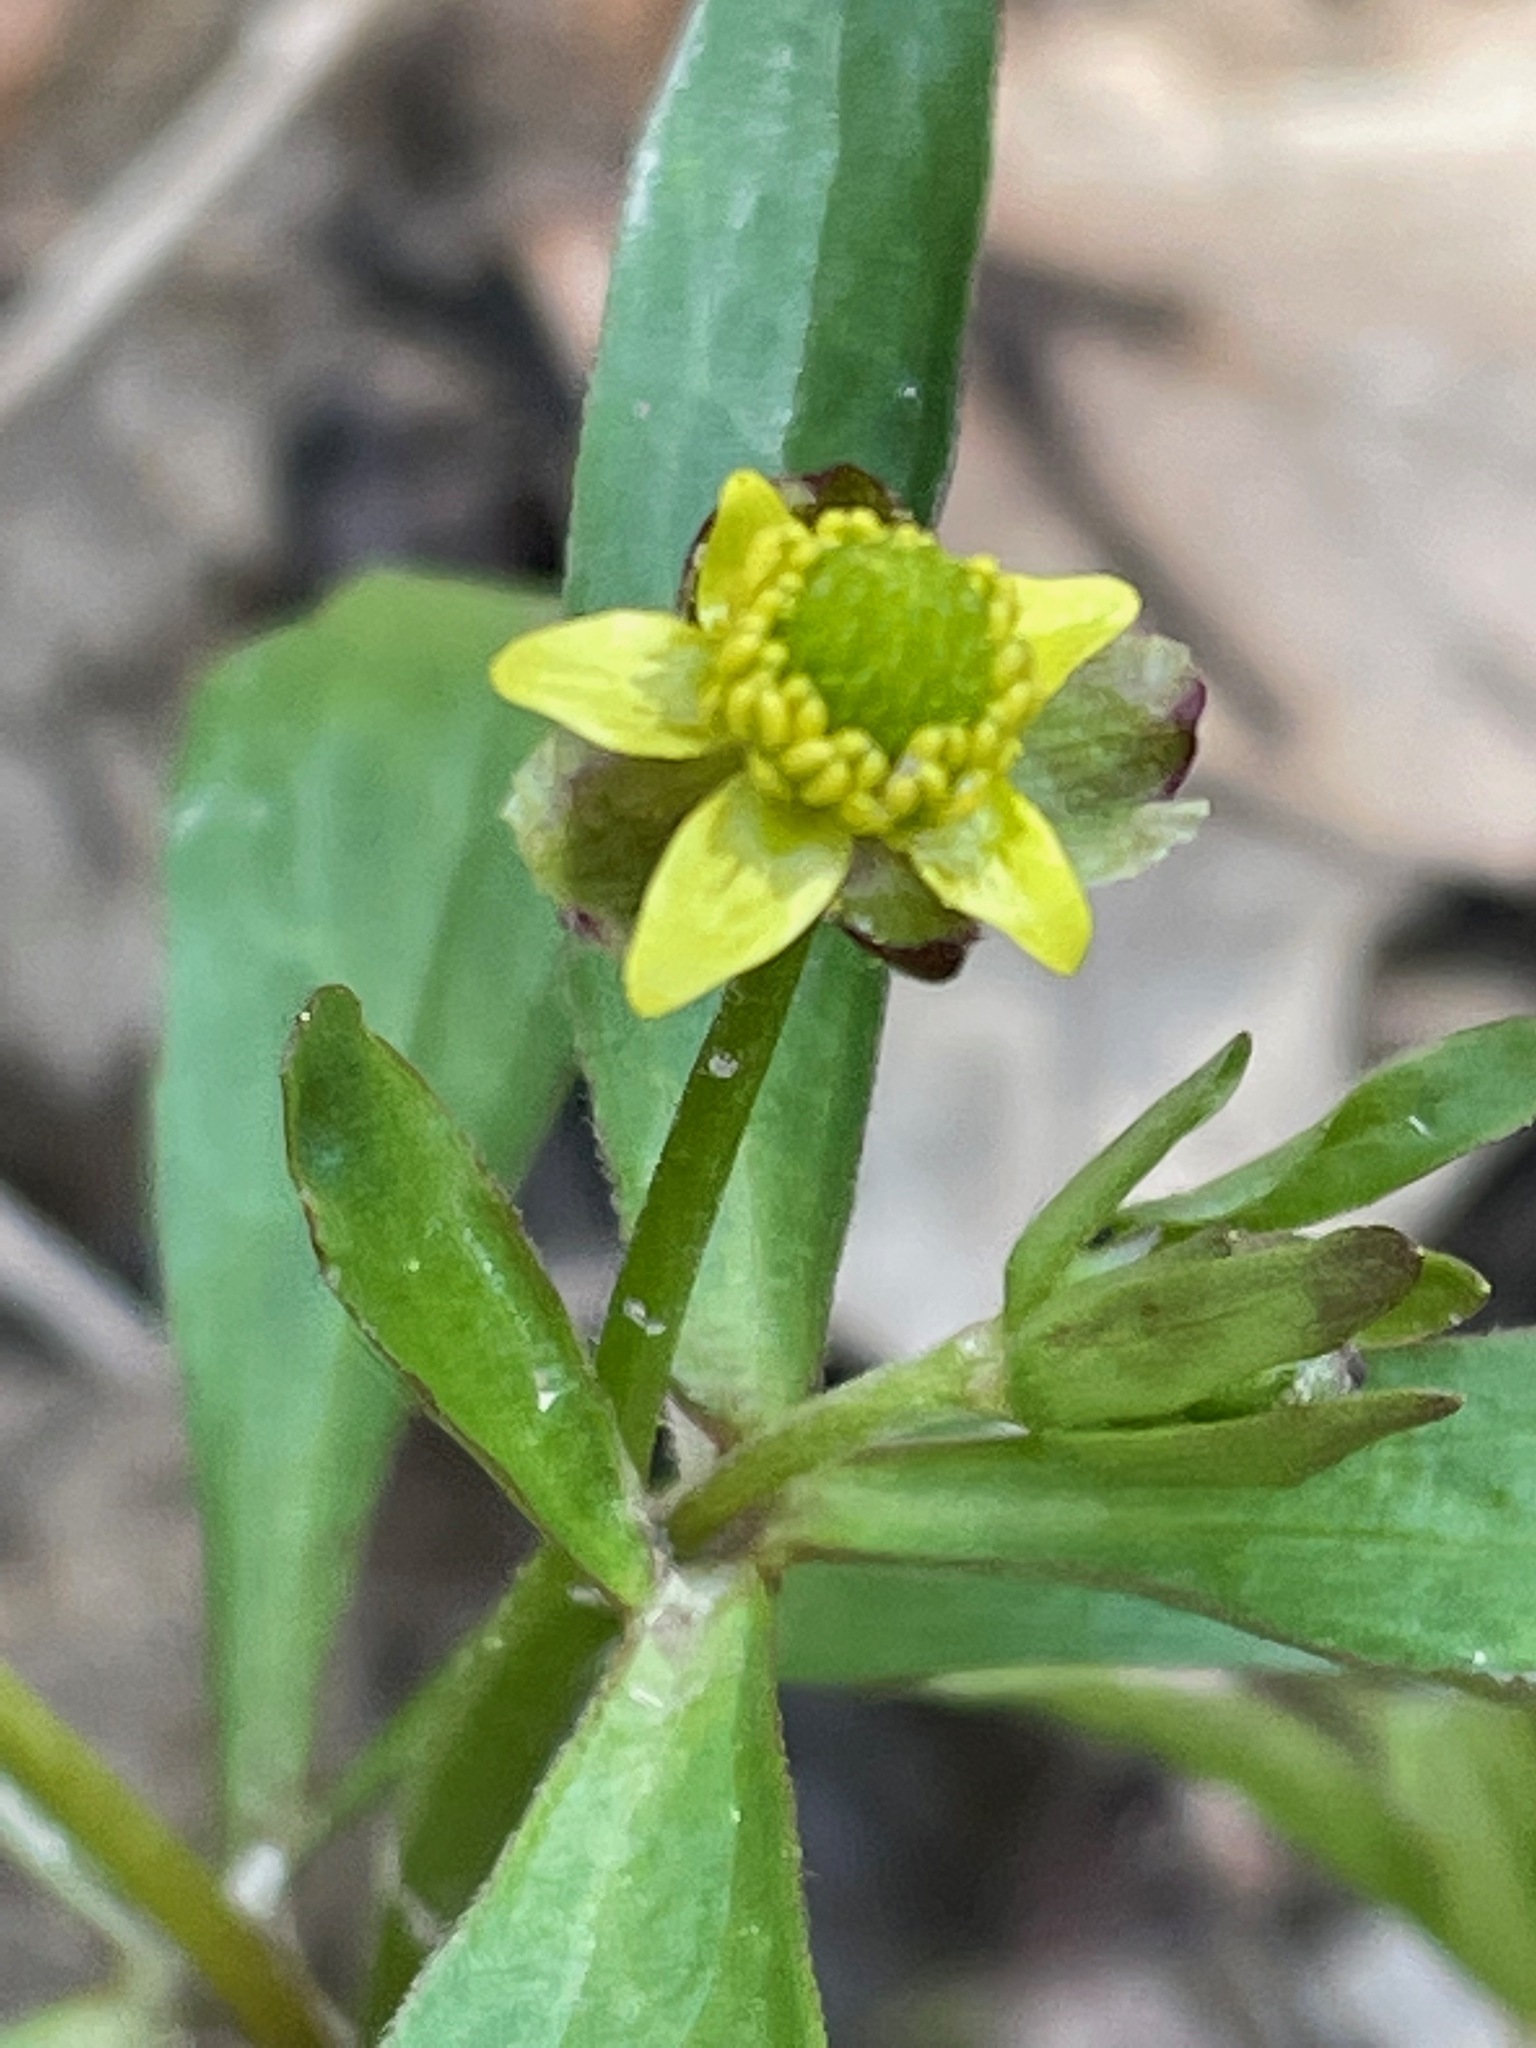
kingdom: Plantae
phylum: Tracheophyta
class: Magnoliopsida
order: Ranunculales
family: Ranunculaceae
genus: Ranunculus
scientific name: Ranunculus abortivus
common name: Early wood buttercup
